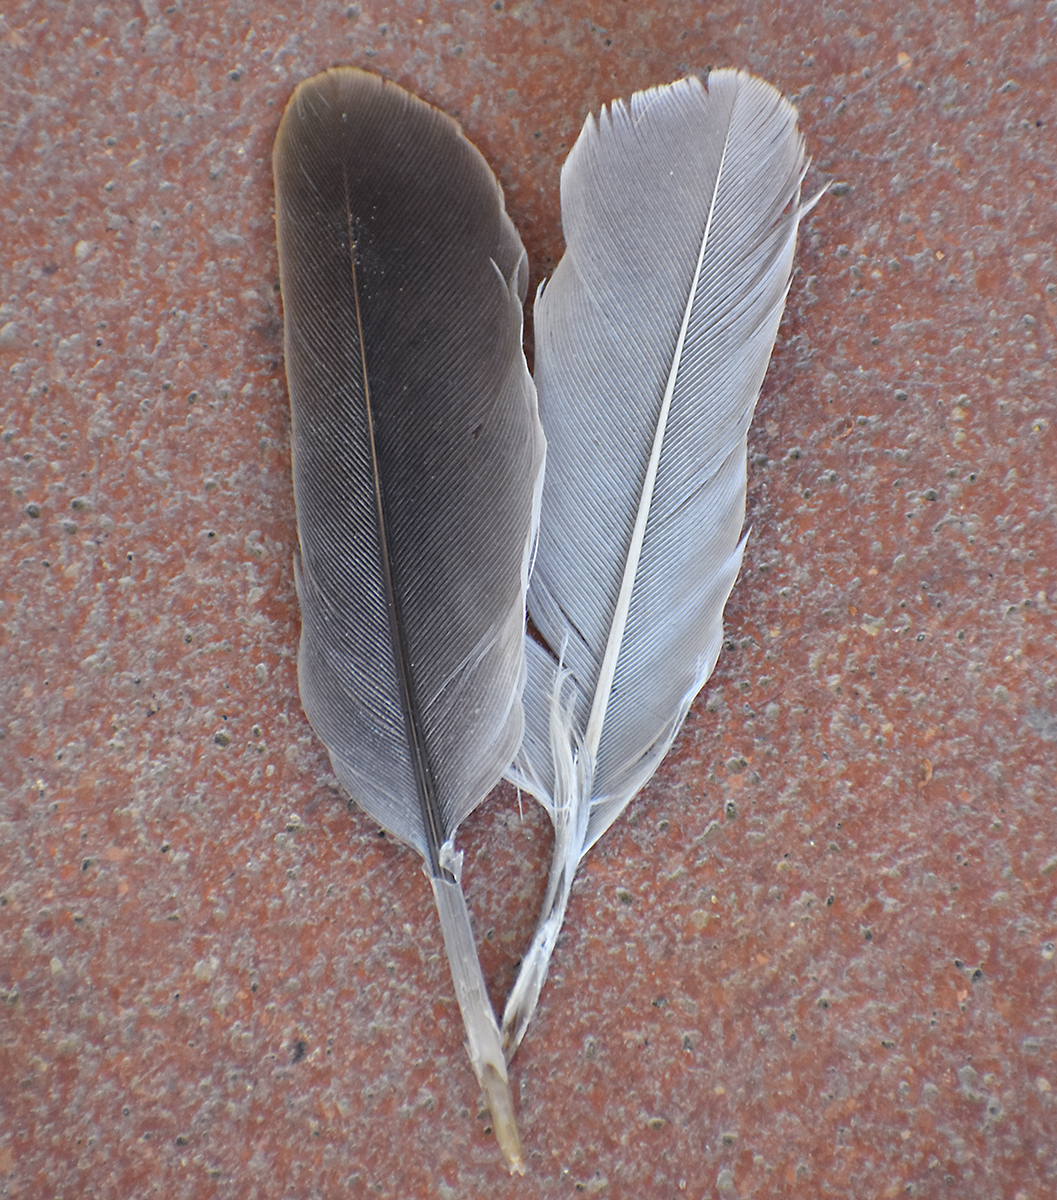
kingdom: Animalia
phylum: Chordata
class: Aves
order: Columbiformes
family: Columbidae
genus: Streptopelia
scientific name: Streptopelia decaocto
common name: Eurasian collared dove
